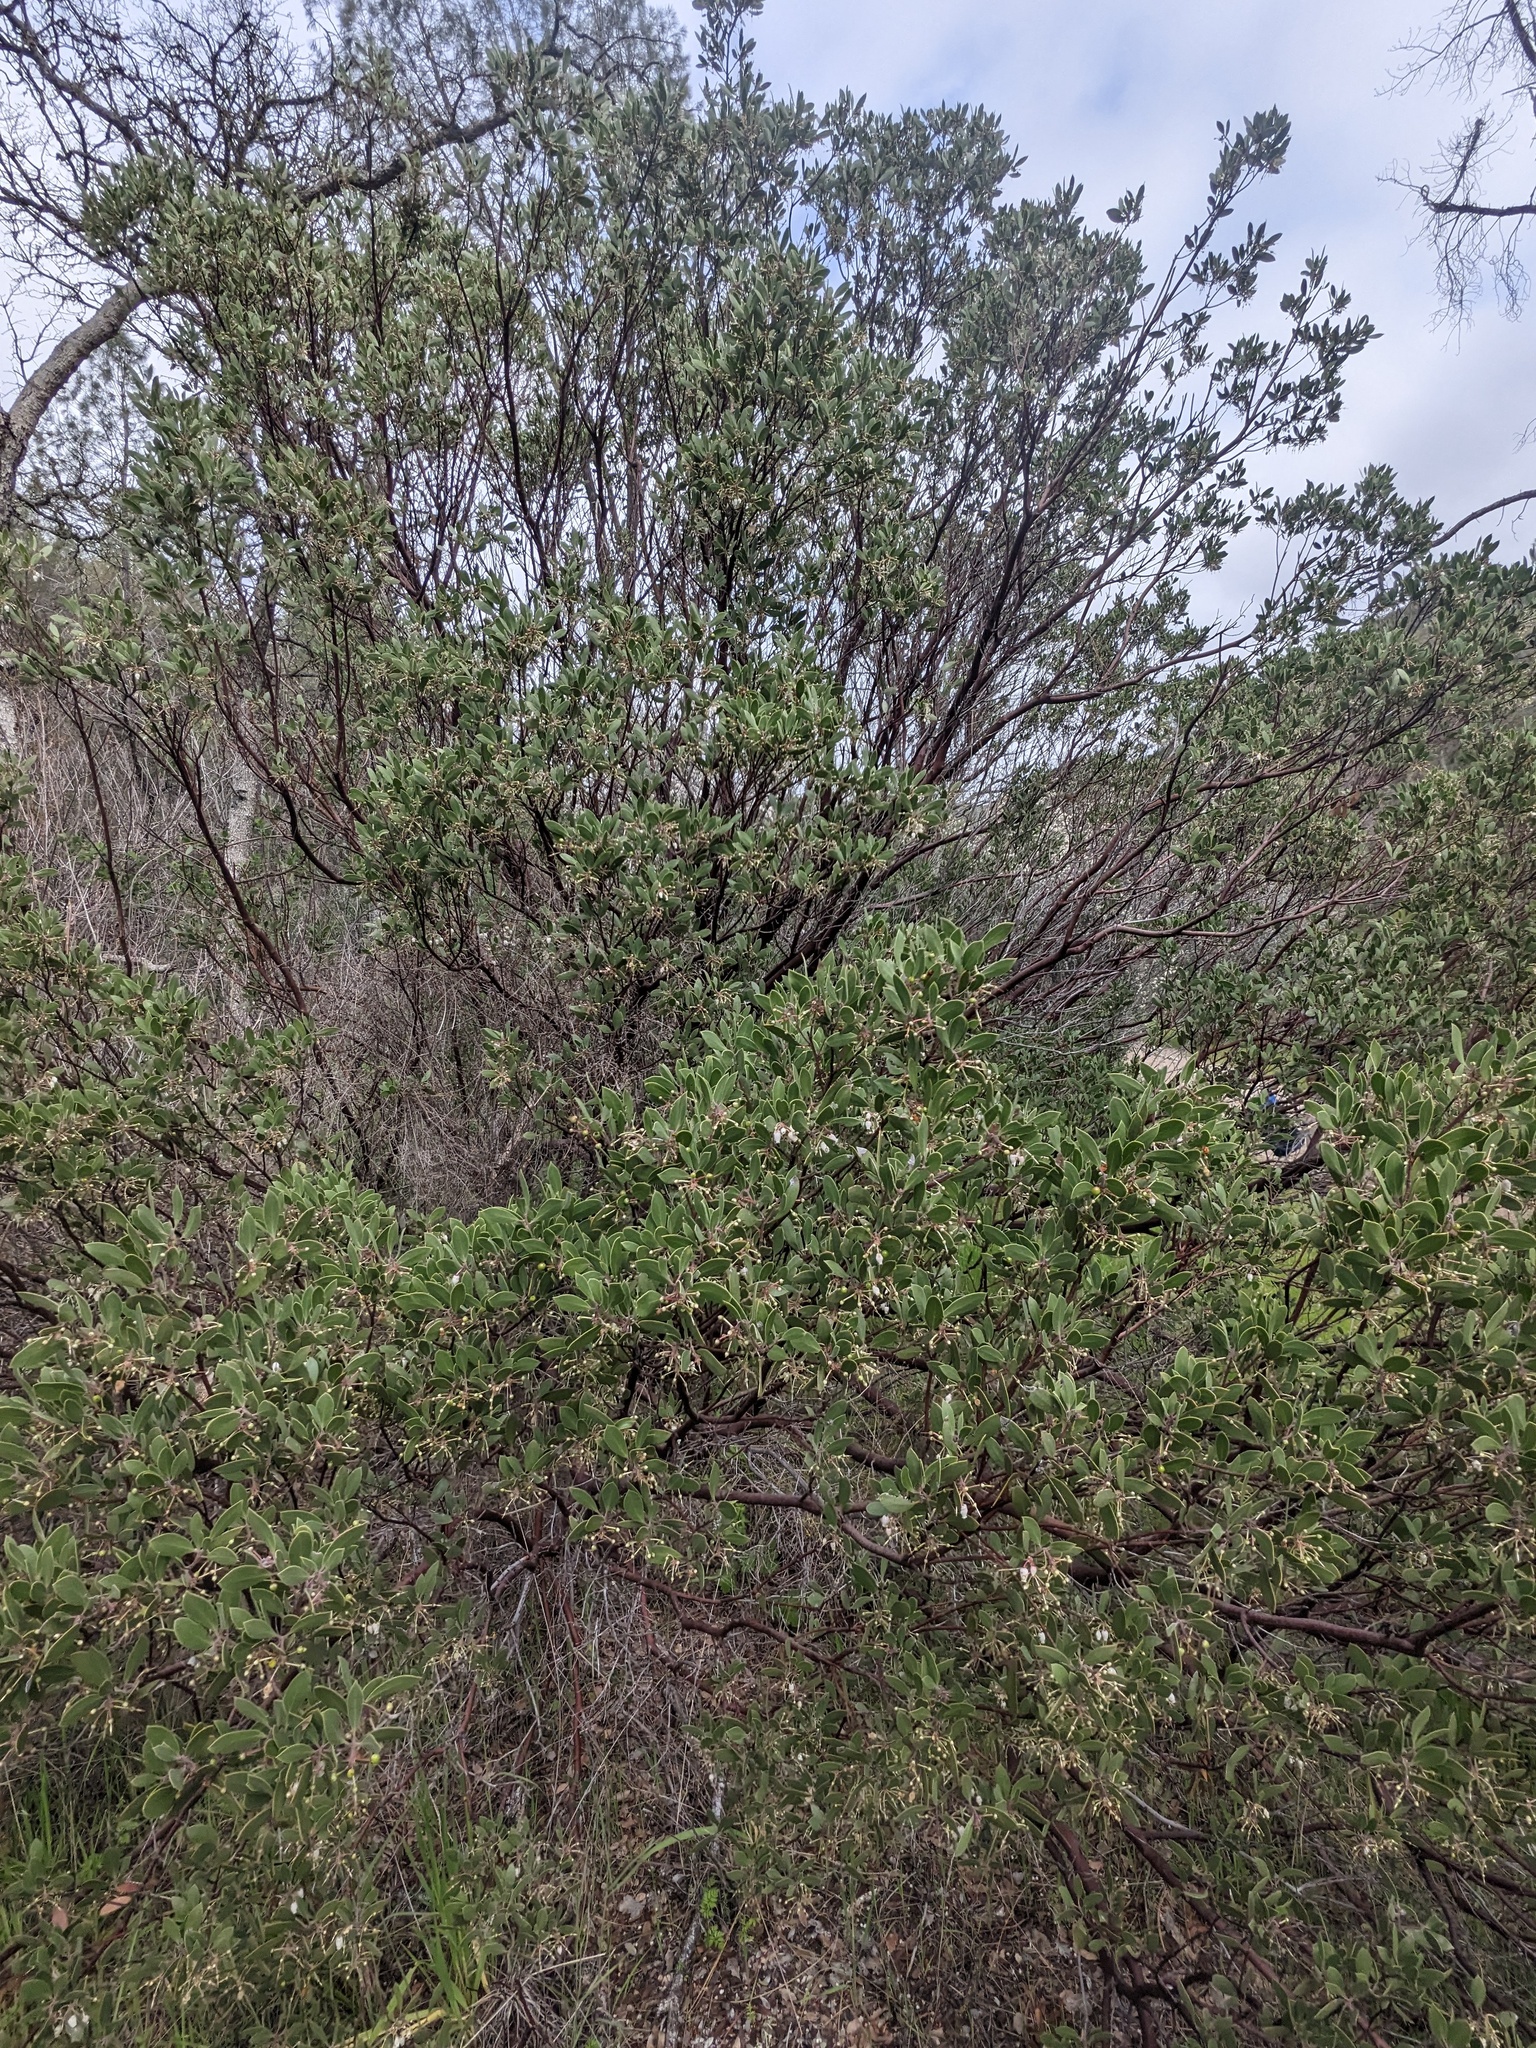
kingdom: Plantae
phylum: Tracheophyta
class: Magnoliopsida
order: Ericales
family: Ericaceae
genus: Arctostaphylos
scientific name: Arctostaphylos pungens
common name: Mexican manzanita
